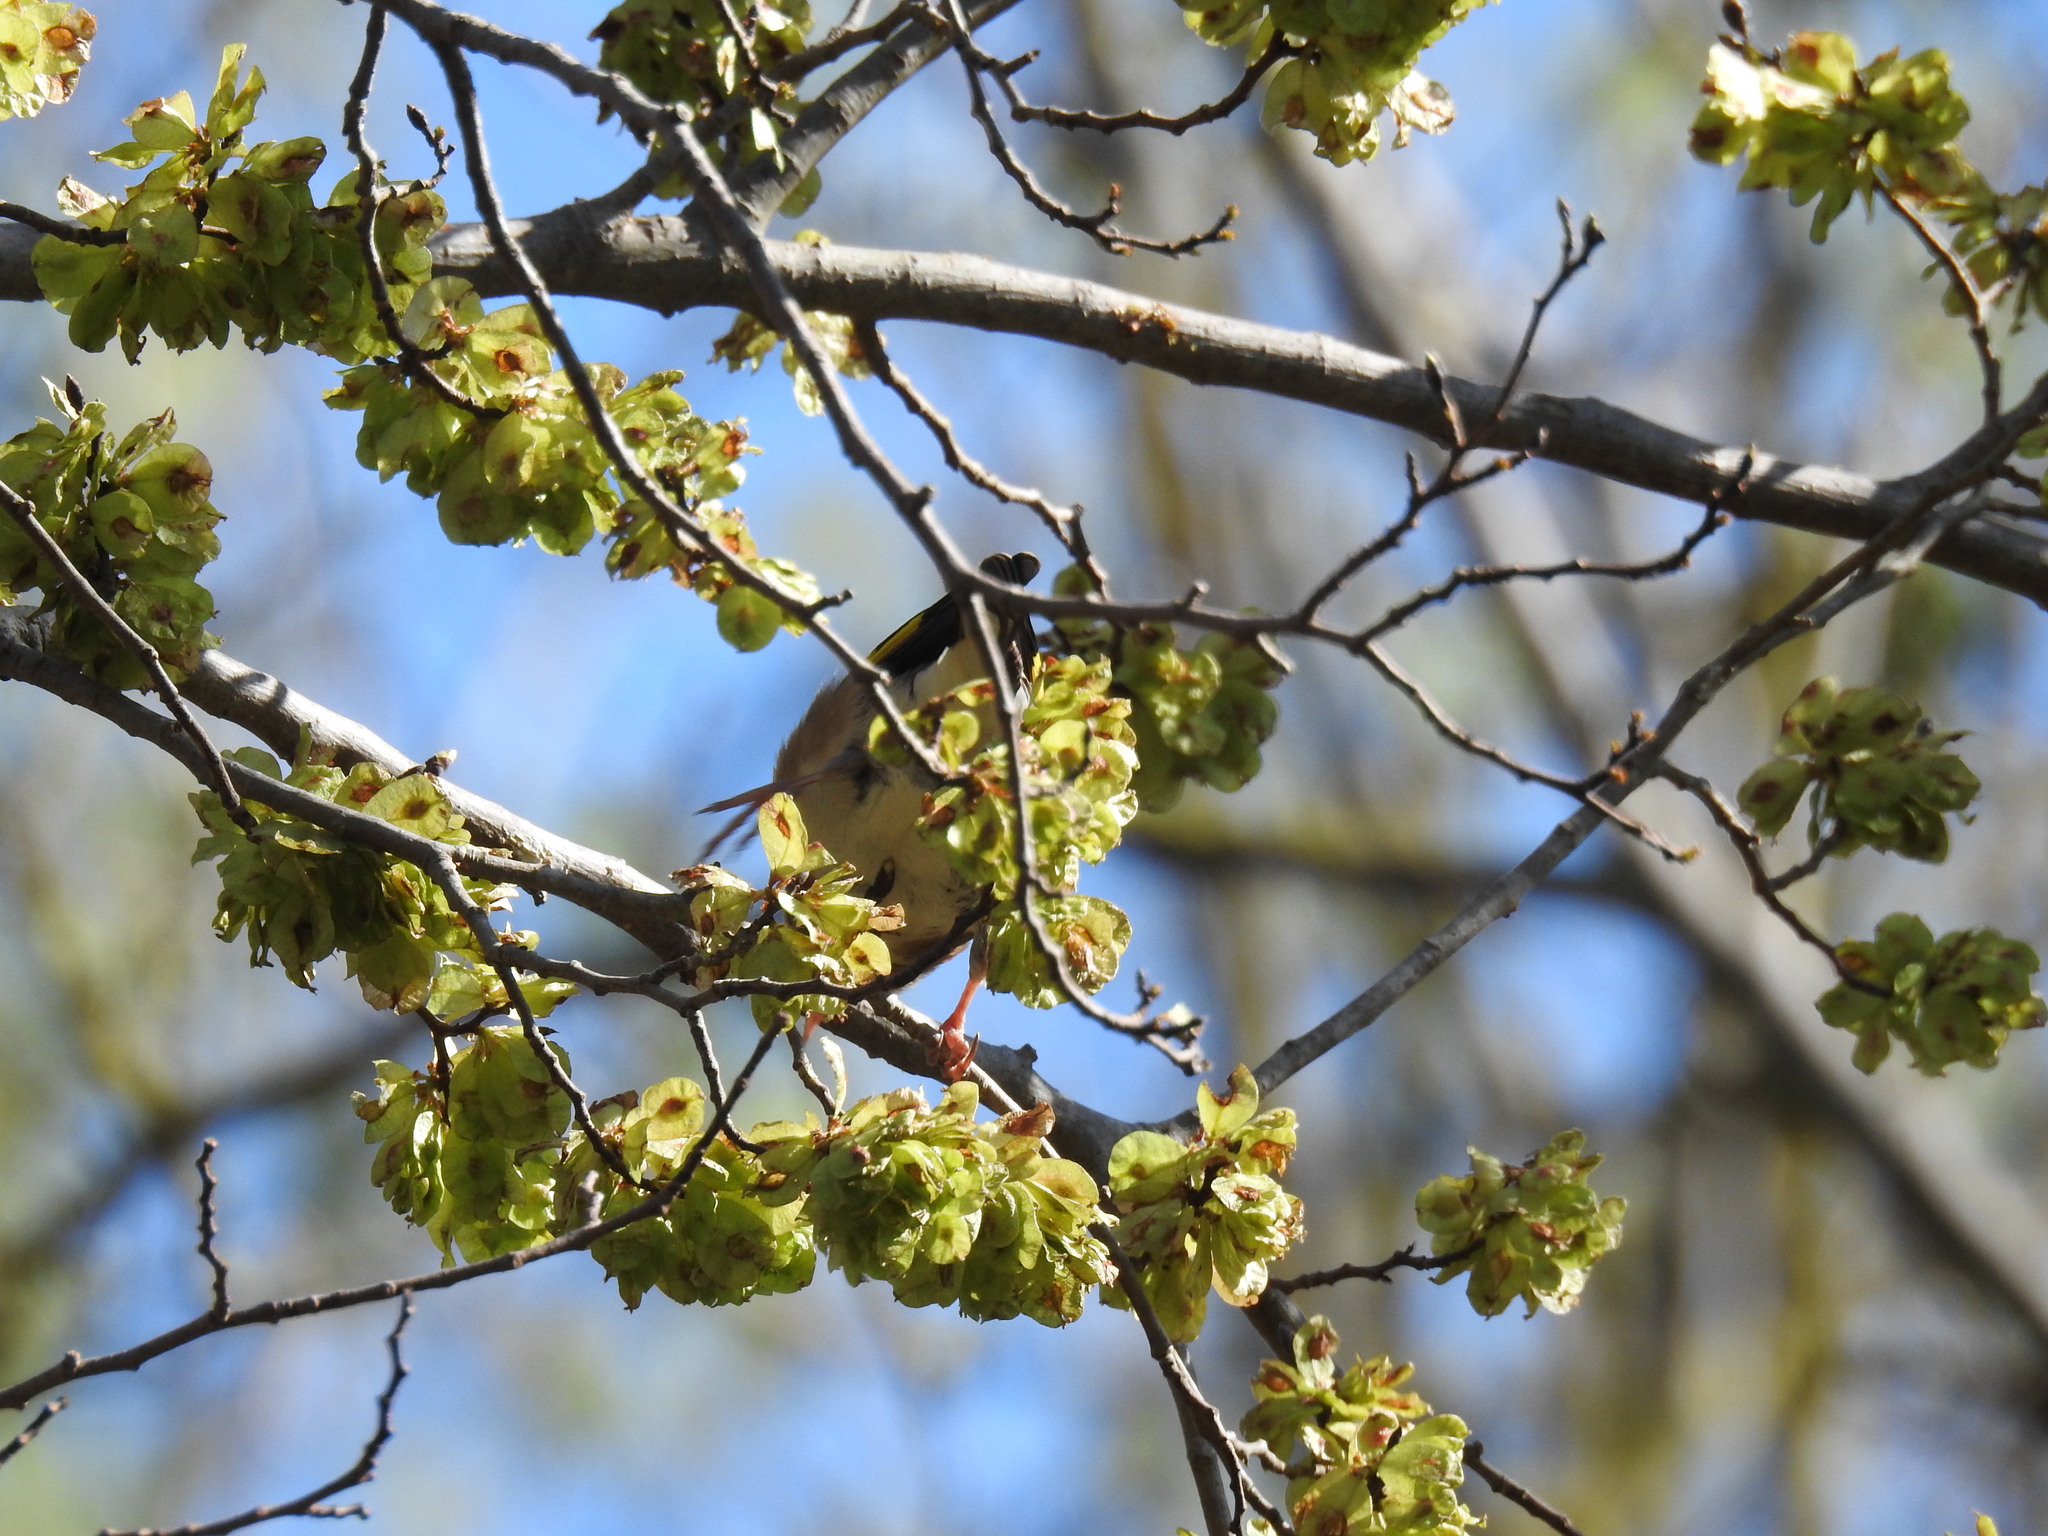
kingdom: Animalia
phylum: Chordata
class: Aves
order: Passeriformes
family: Fringillidae
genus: Carduelis
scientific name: Carduelis carduelis
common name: European goldfinch
